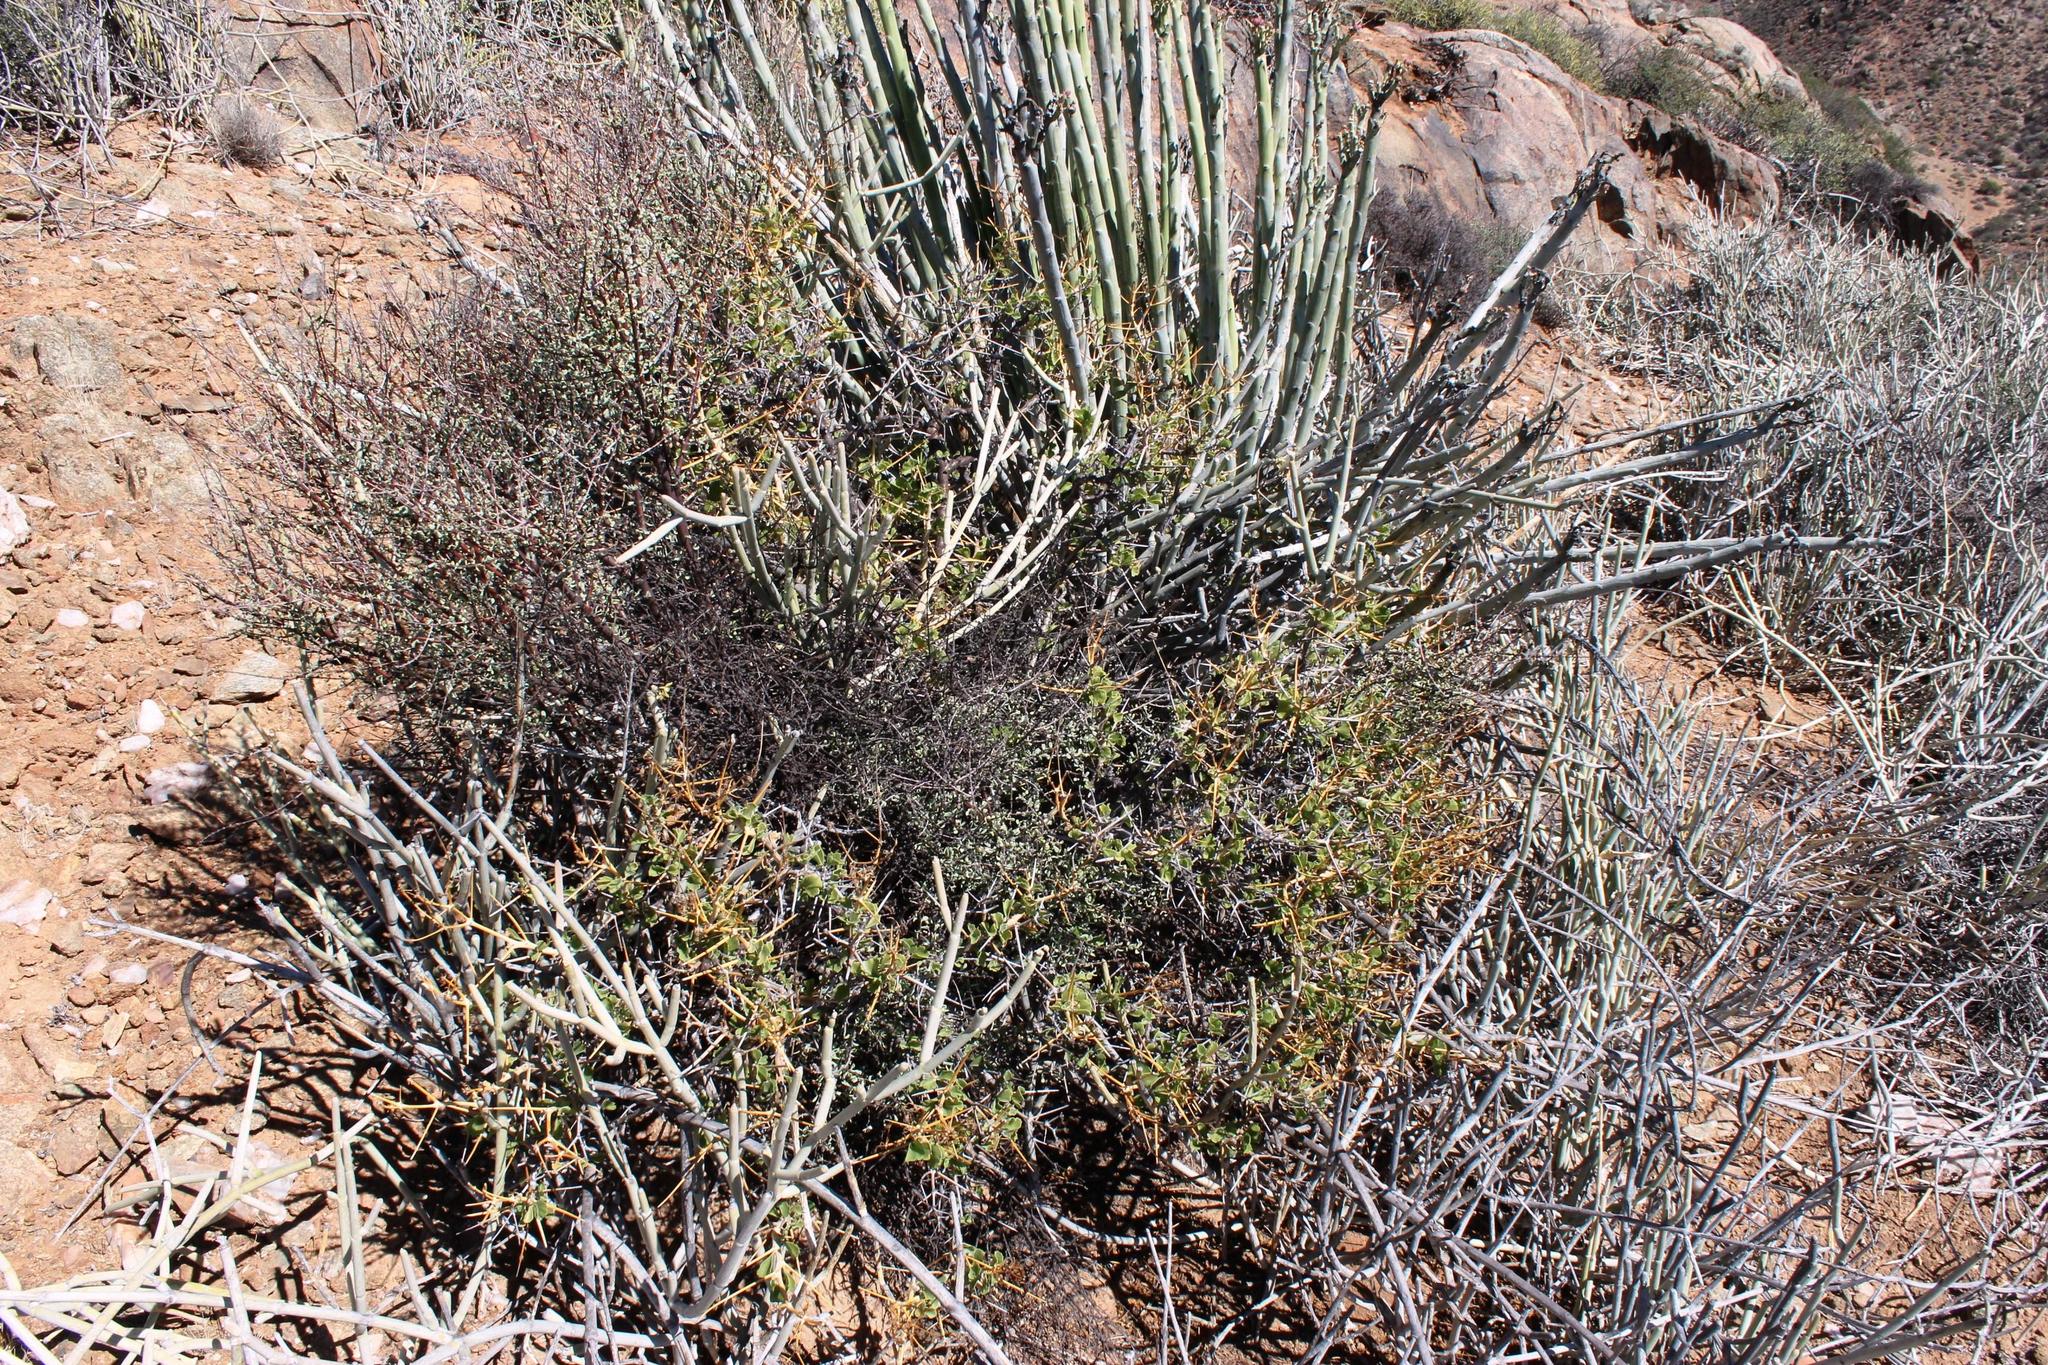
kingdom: Plantae
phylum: Tracheophyta
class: Magnoliopsida
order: Geraniales
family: Geraniaceae
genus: Pelargonium
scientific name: Pelargonium spinosum
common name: Thorny pelargonium
